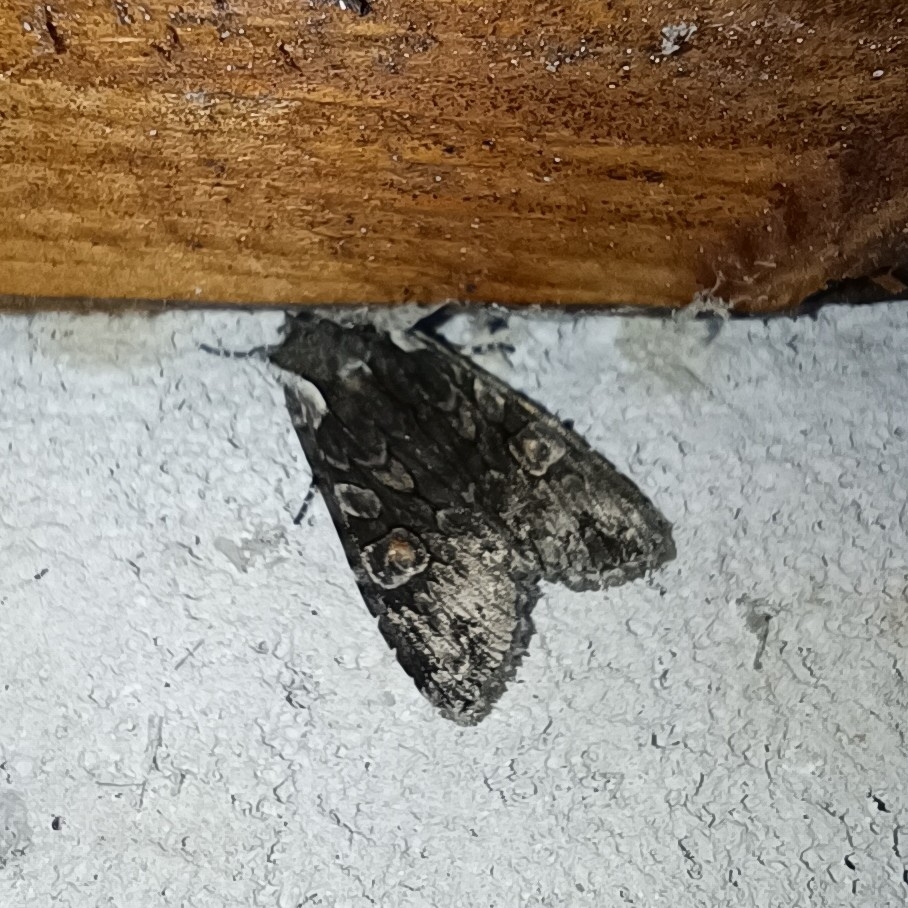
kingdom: Animalia
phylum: Arthropoda
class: Insecta
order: Lepidoptera
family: Noctuidae
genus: Lithophane
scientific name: Lithophane consocia
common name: Softly's shoulder-knot
